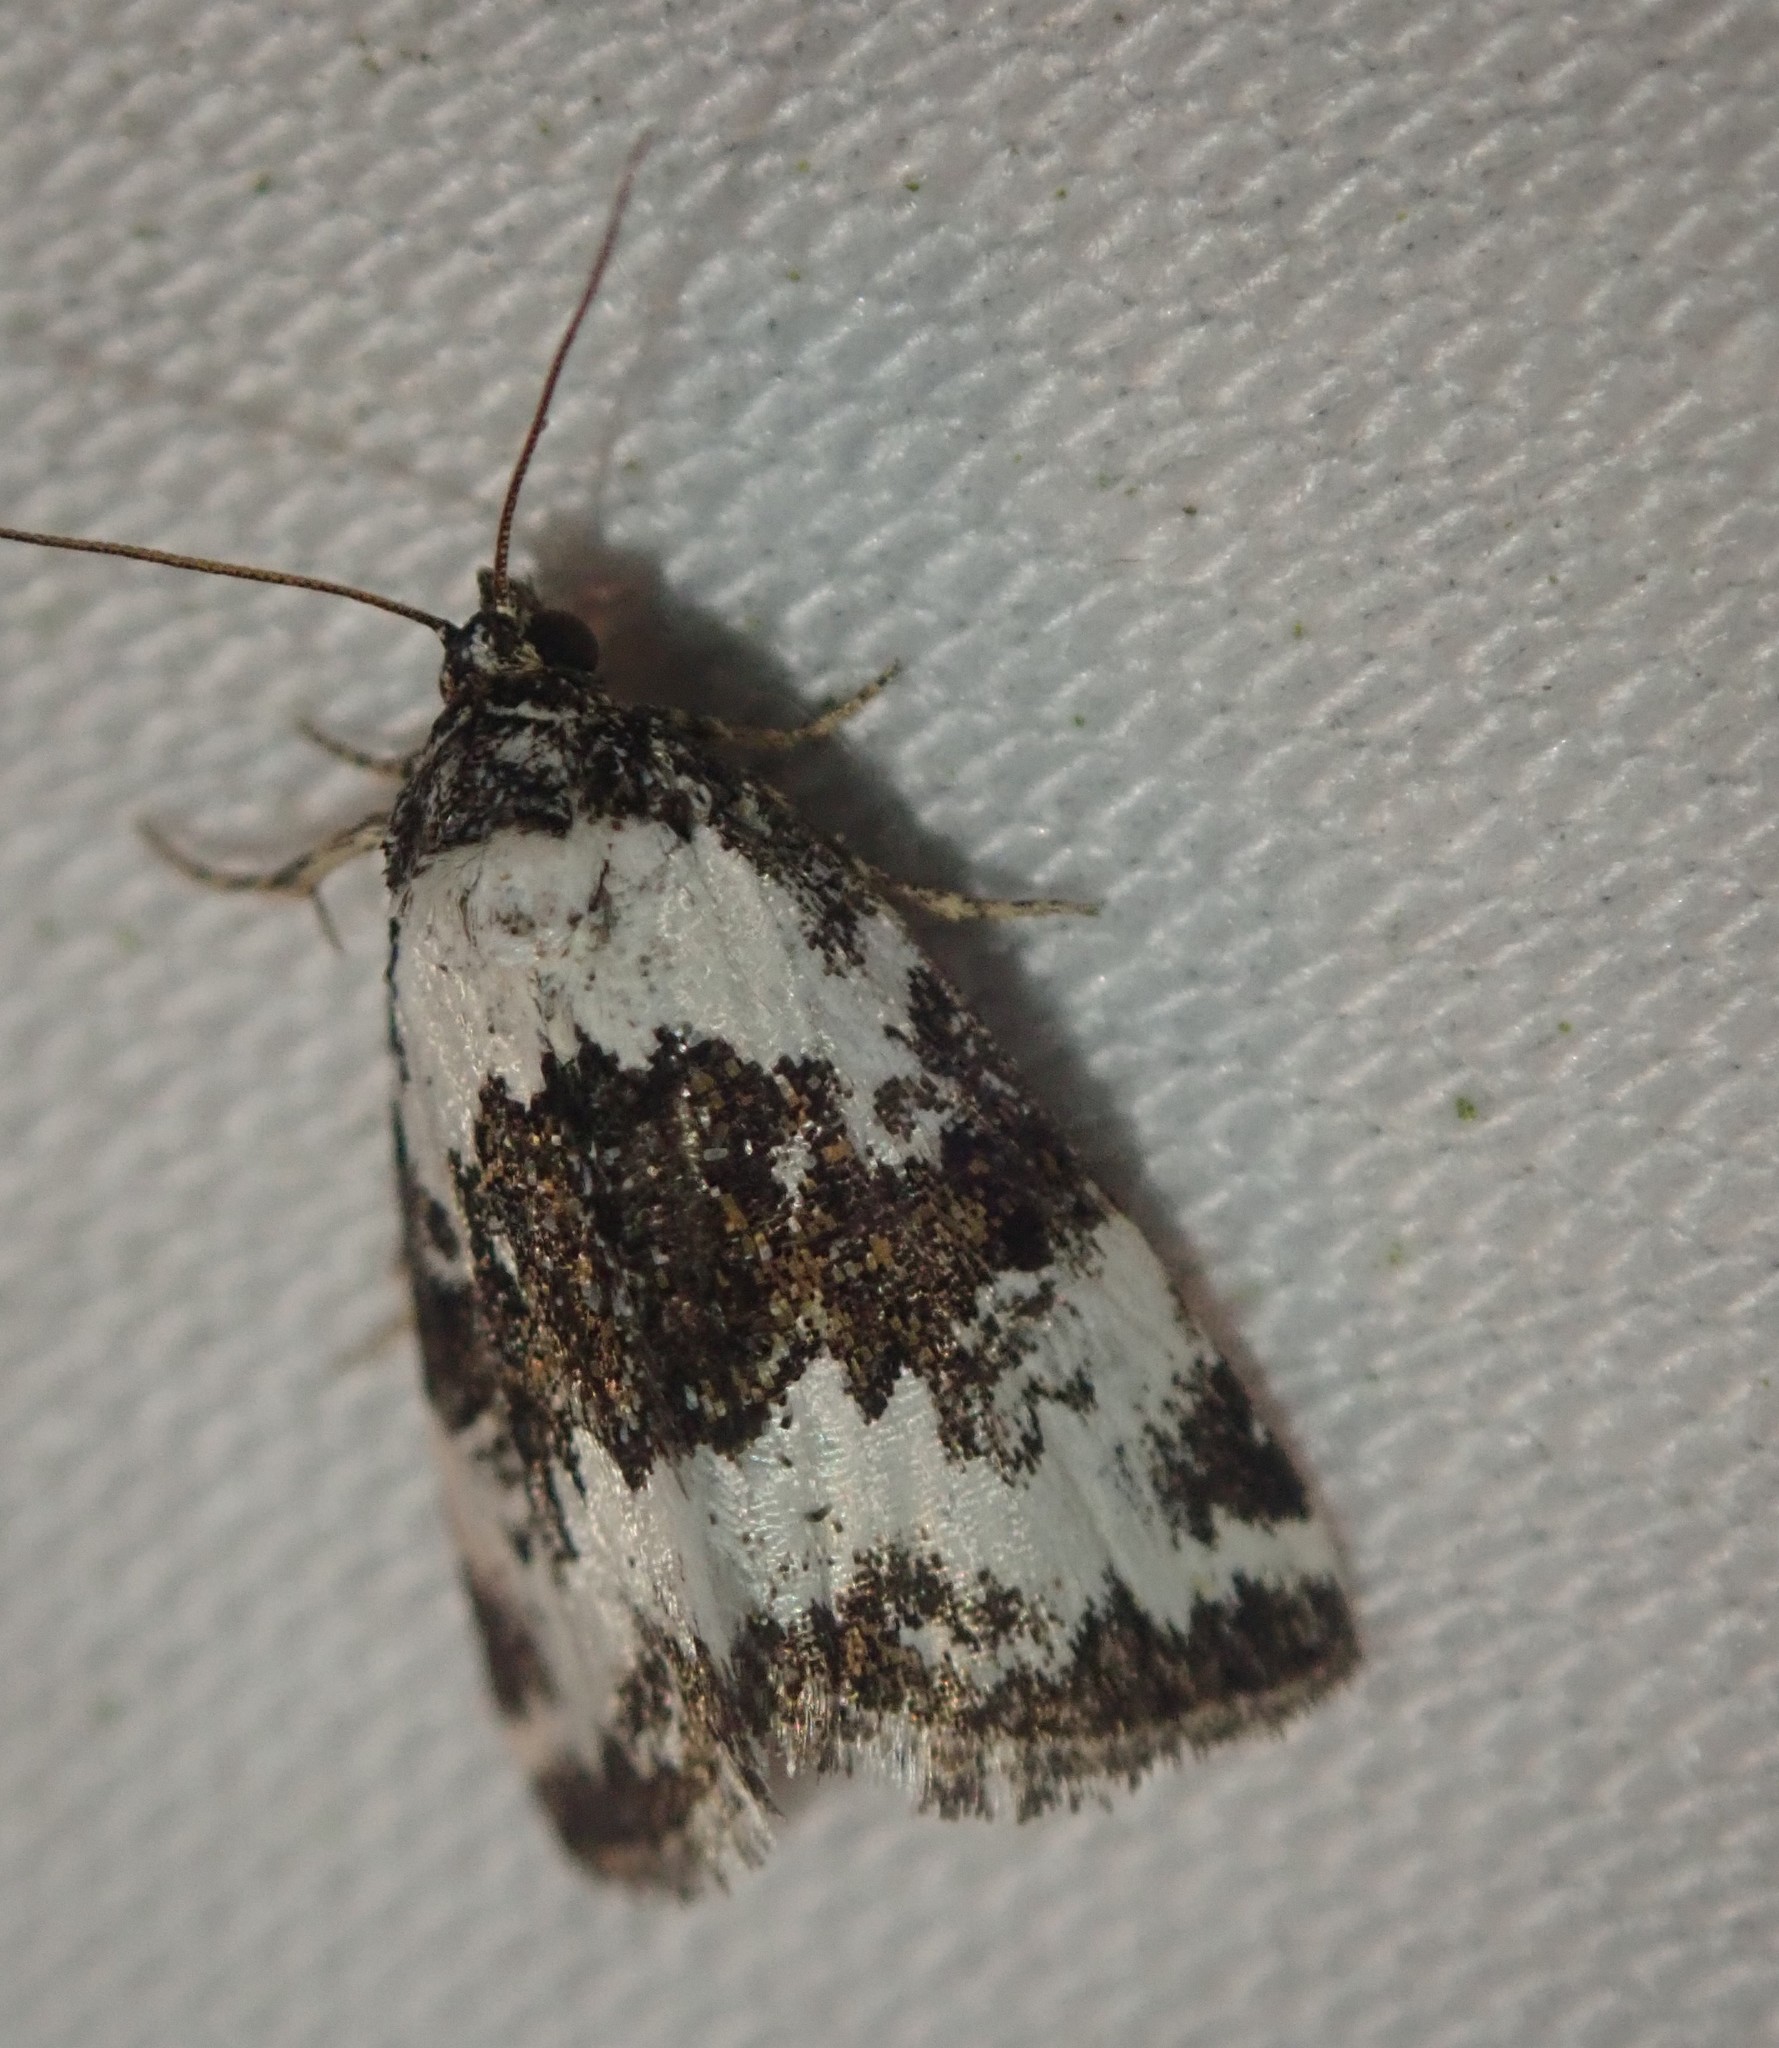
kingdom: Animalia
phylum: Arthropoda
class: Insecta
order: Lepidoptera
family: Noctuidae
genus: Deltote
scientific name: Deltote deceptoria
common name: Pretty marbled
